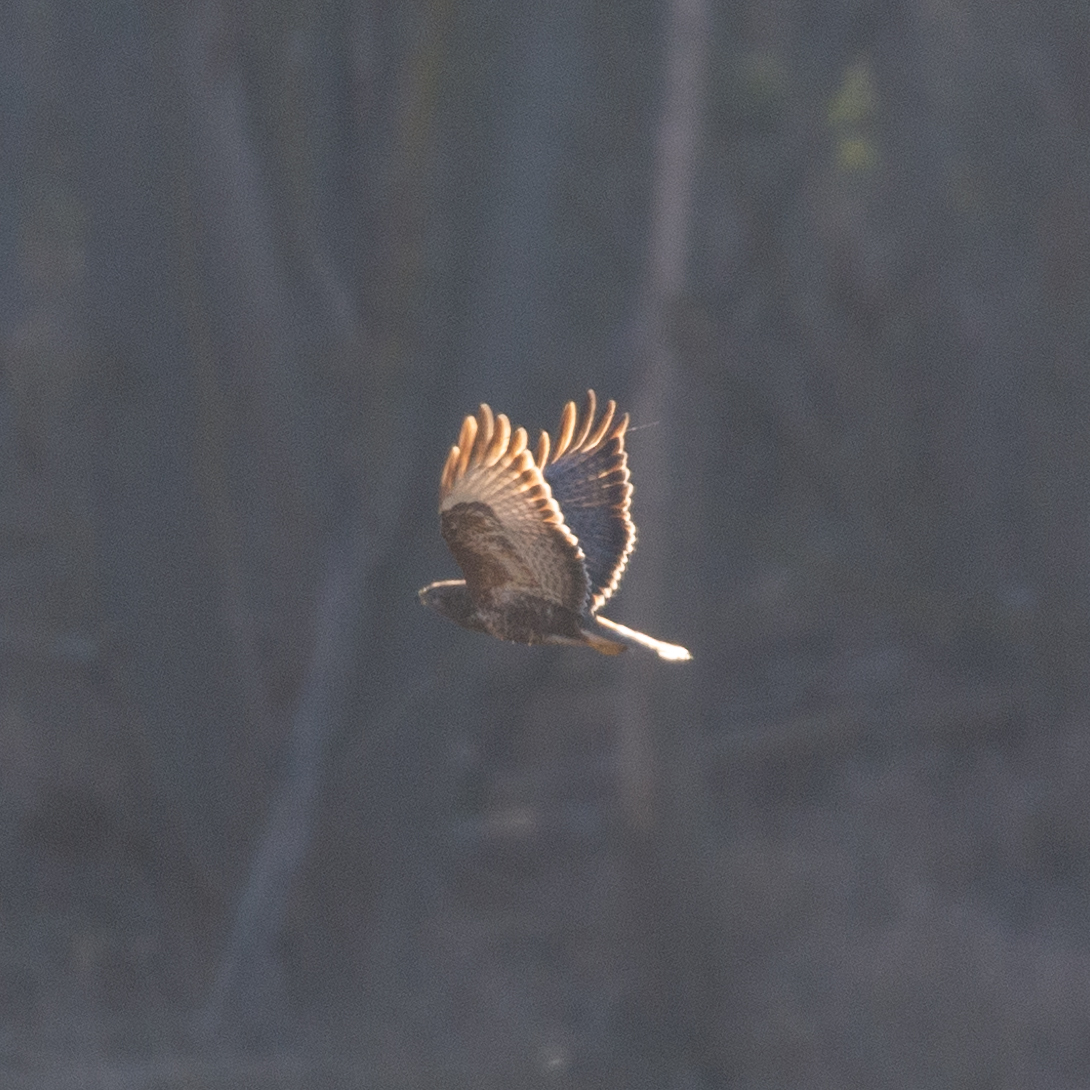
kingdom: Animalia
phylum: Chordata
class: Aves
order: Accipitriformes
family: Accipitridae
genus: Buteo
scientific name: Buteo buteo
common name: Common buzzard
